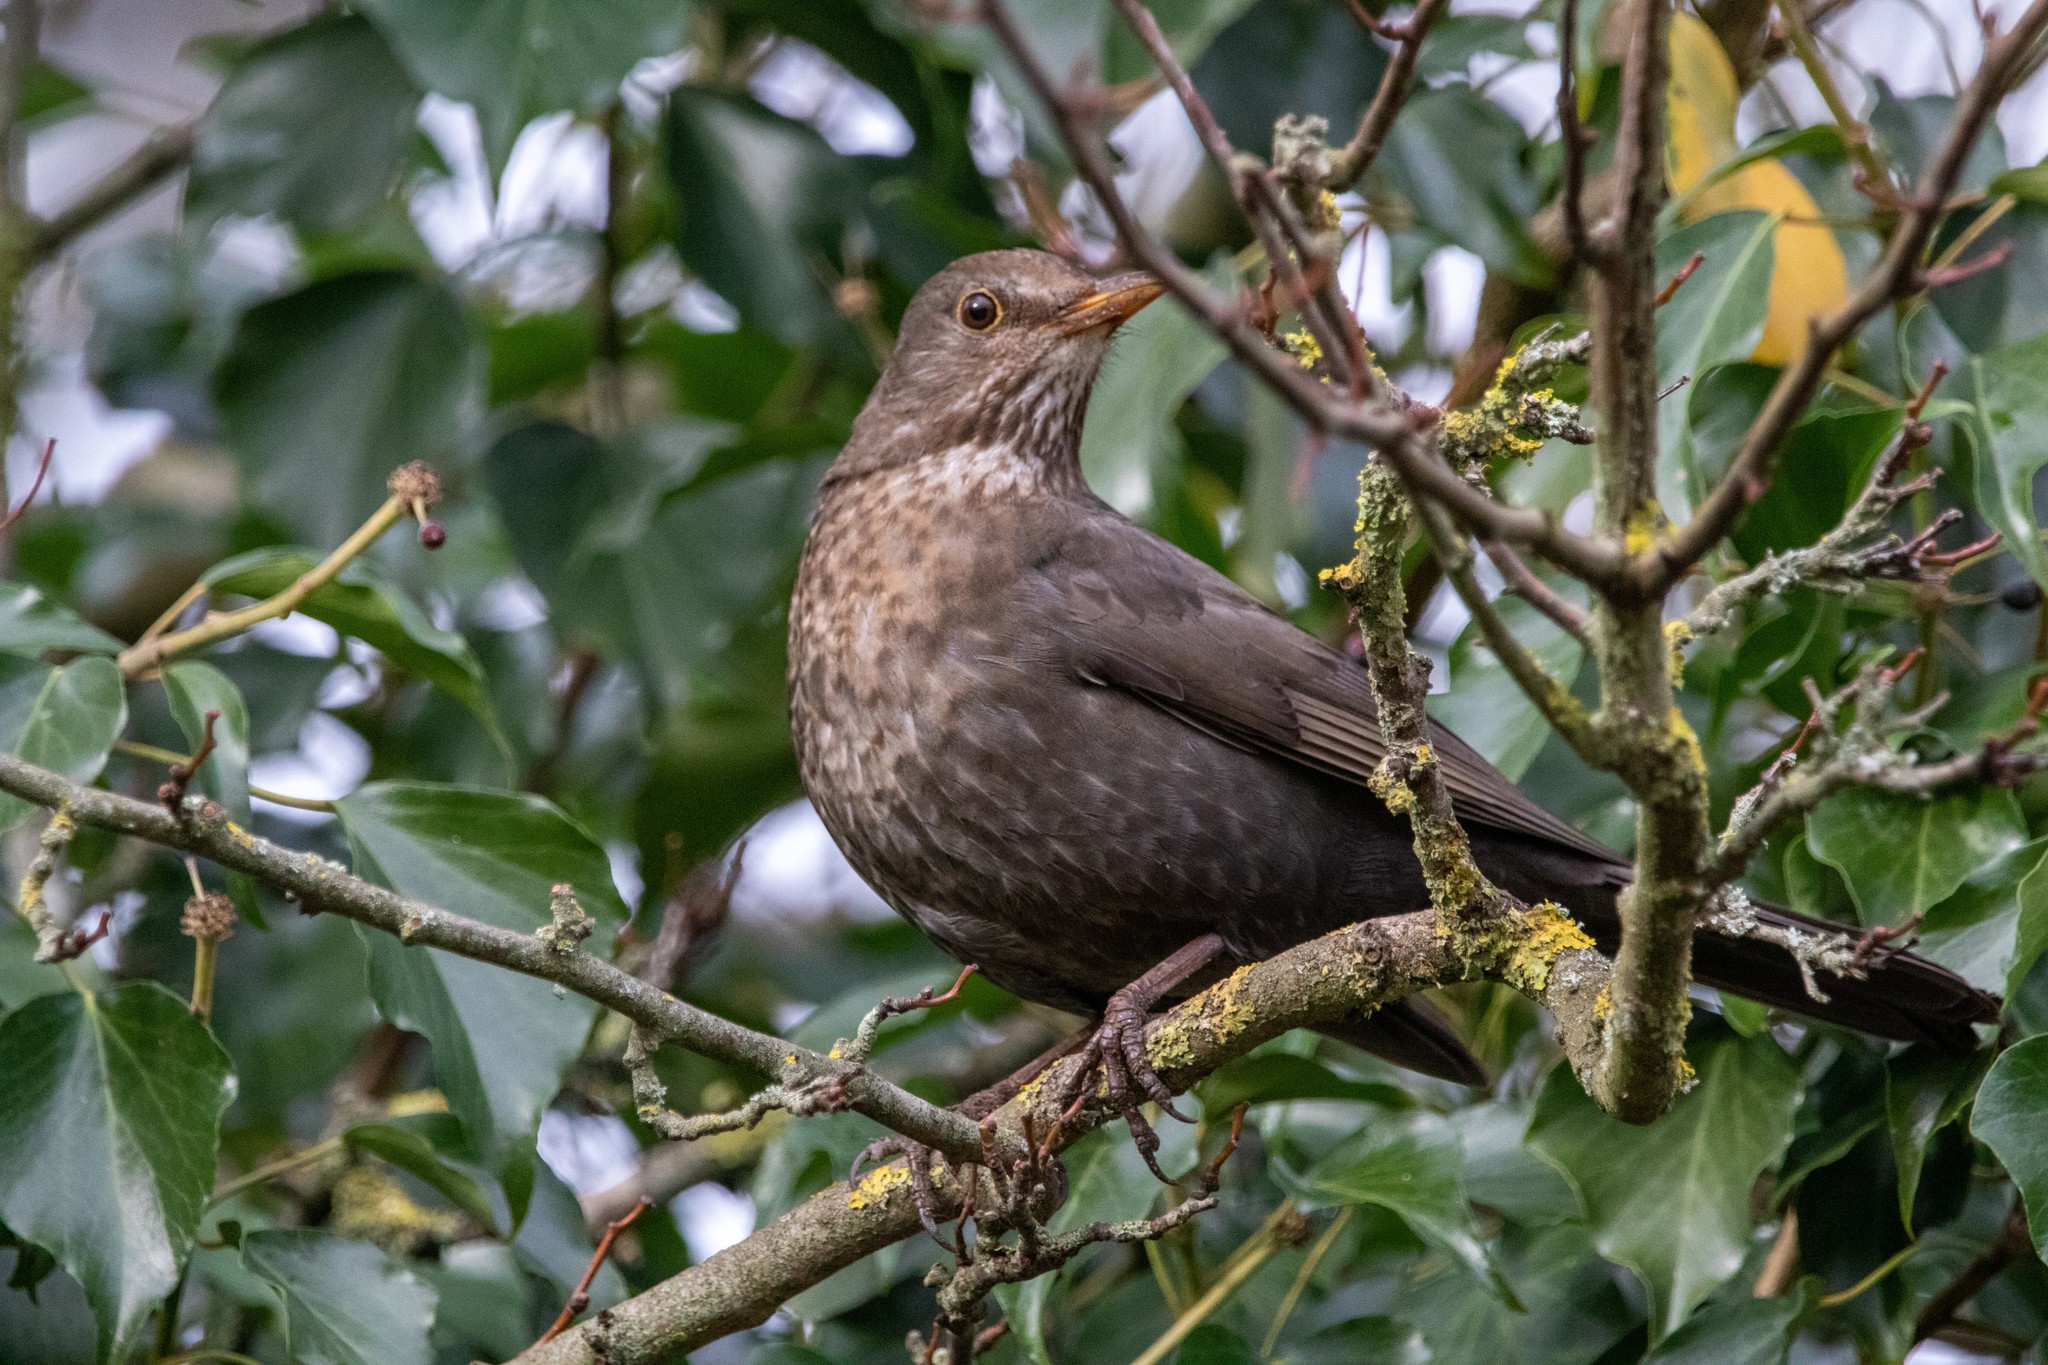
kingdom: Animalia
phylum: Chordata
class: Aves
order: Passeriformes
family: Turdidae
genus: Turdus
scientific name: Turdus merula
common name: Common blackbird
